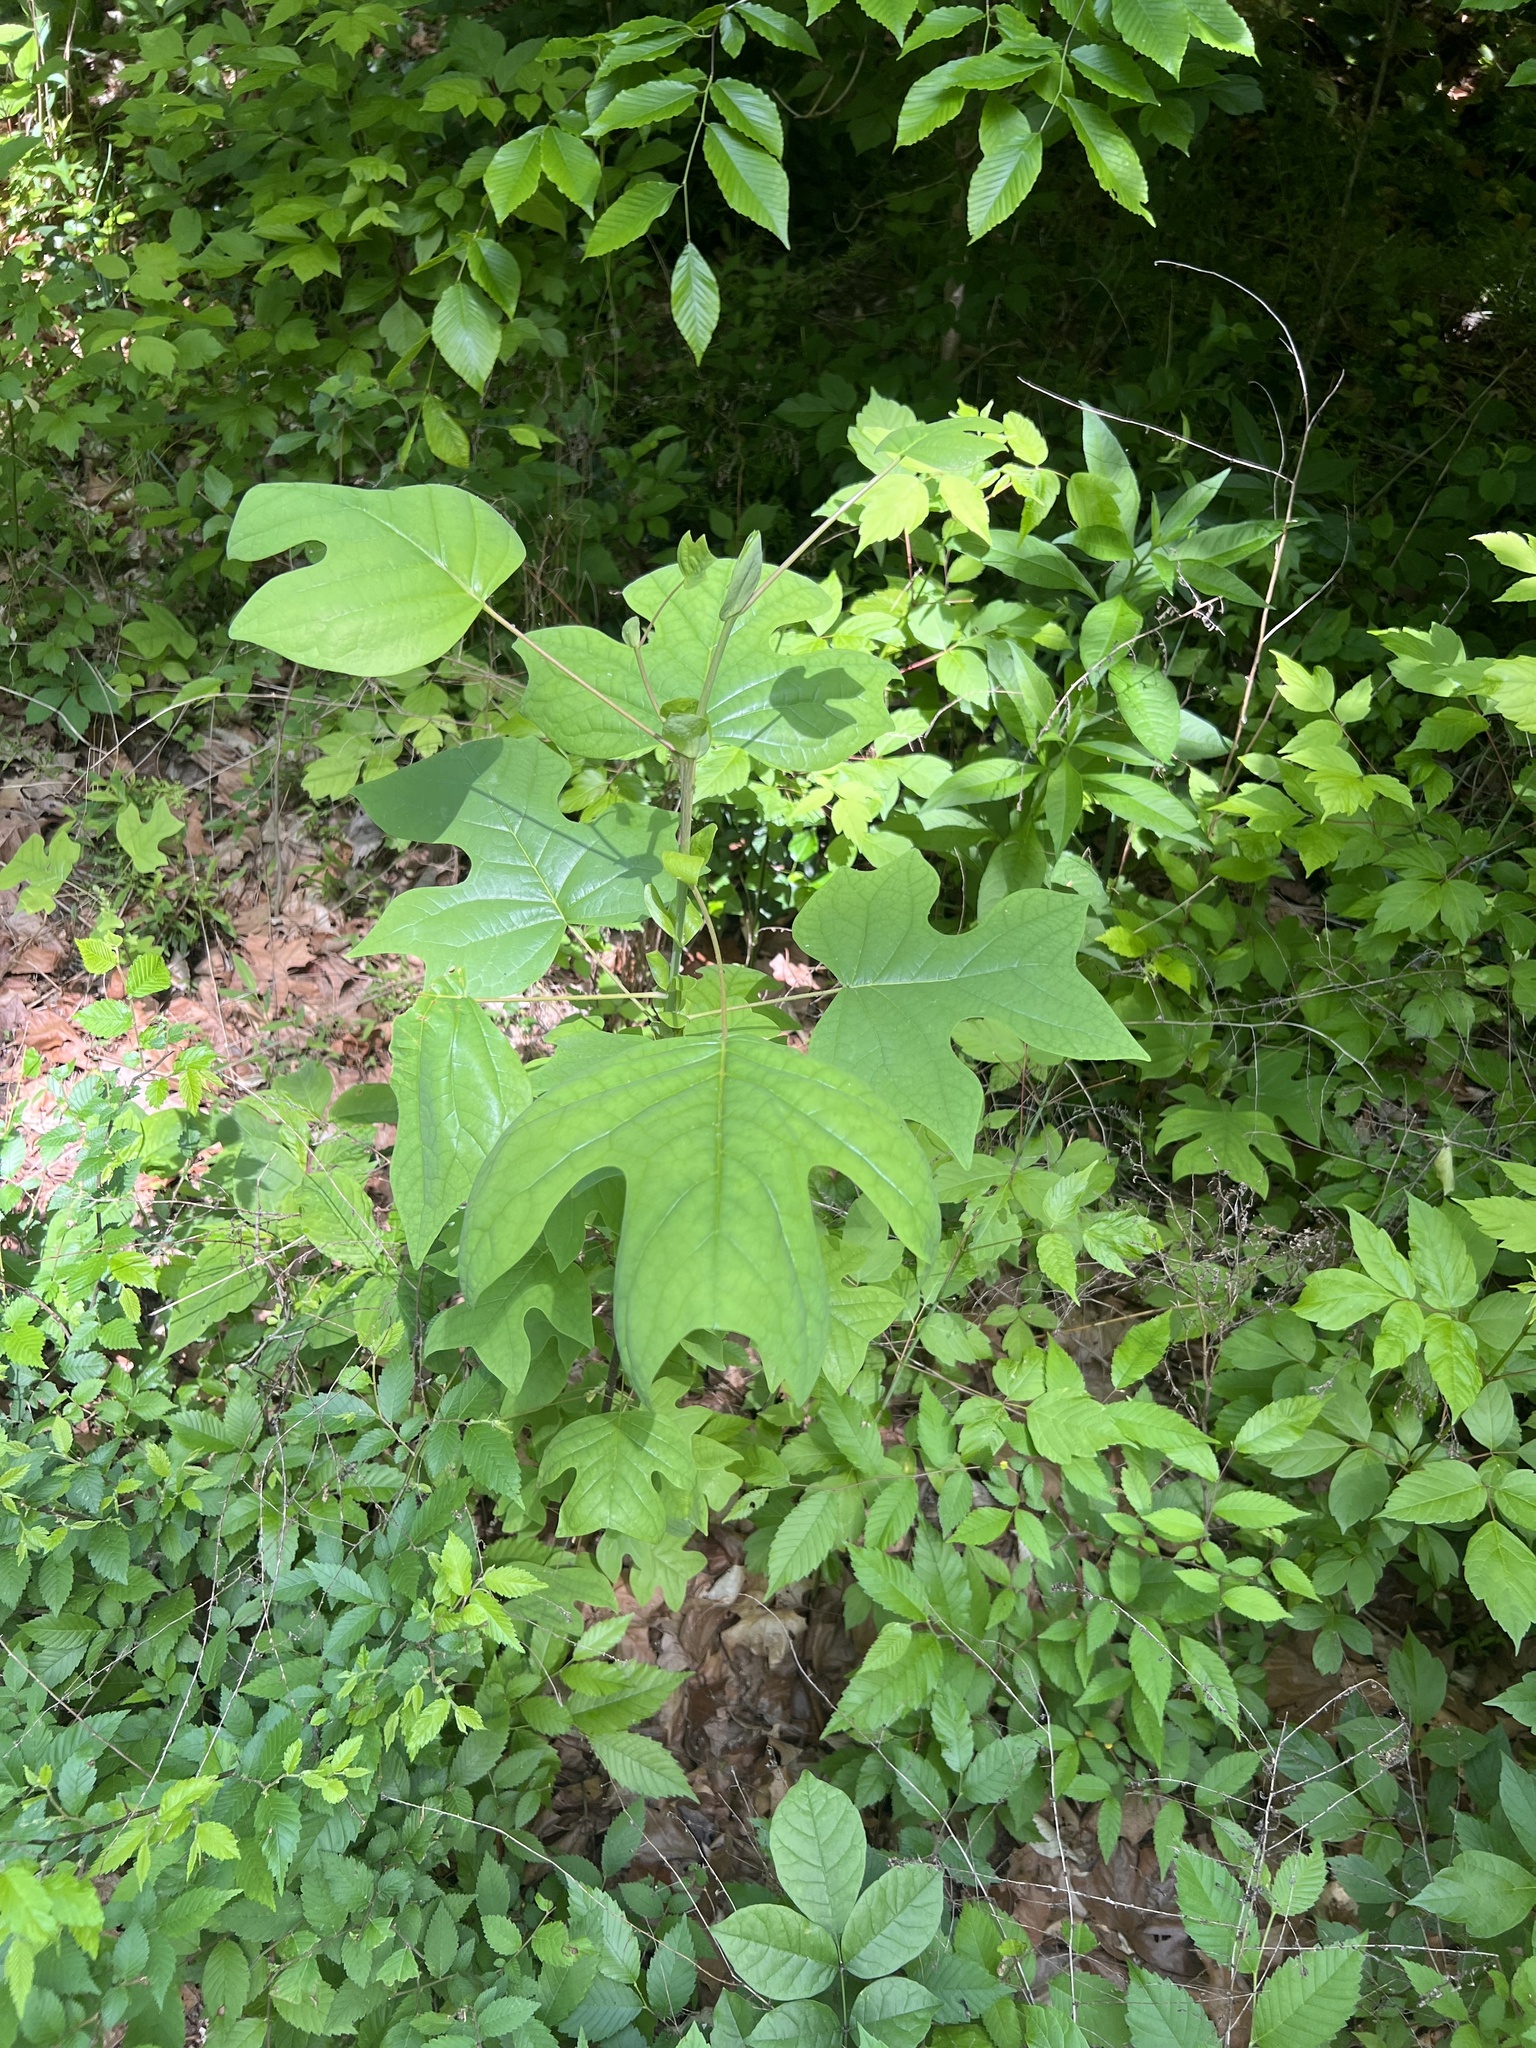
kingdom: Plantae
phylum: Tracheophyta
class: Magnoliopsida
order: Magnoliales
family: Magnoliaceae
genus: Liriodendron
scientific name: Liriodendron tulipifera
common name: Tulip tree
